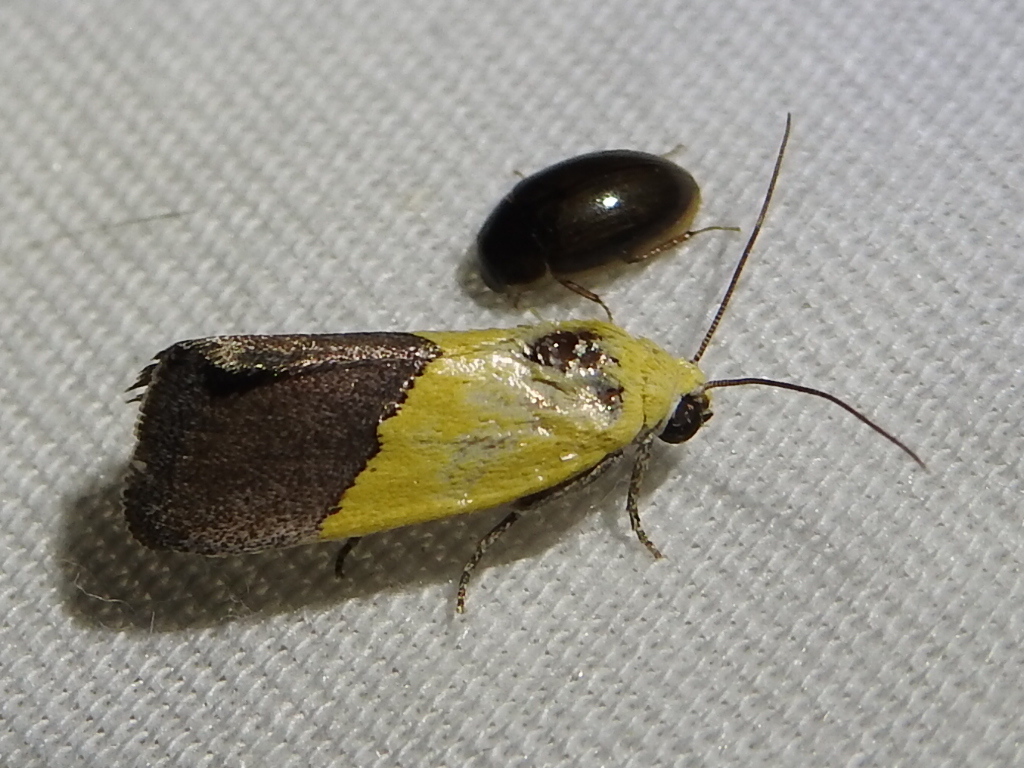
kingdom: Animalia
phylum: Arthropoda
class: Insecta
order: Lepidoptera
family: Noctuidae
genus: Acontia
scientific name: Acontia semiflava
